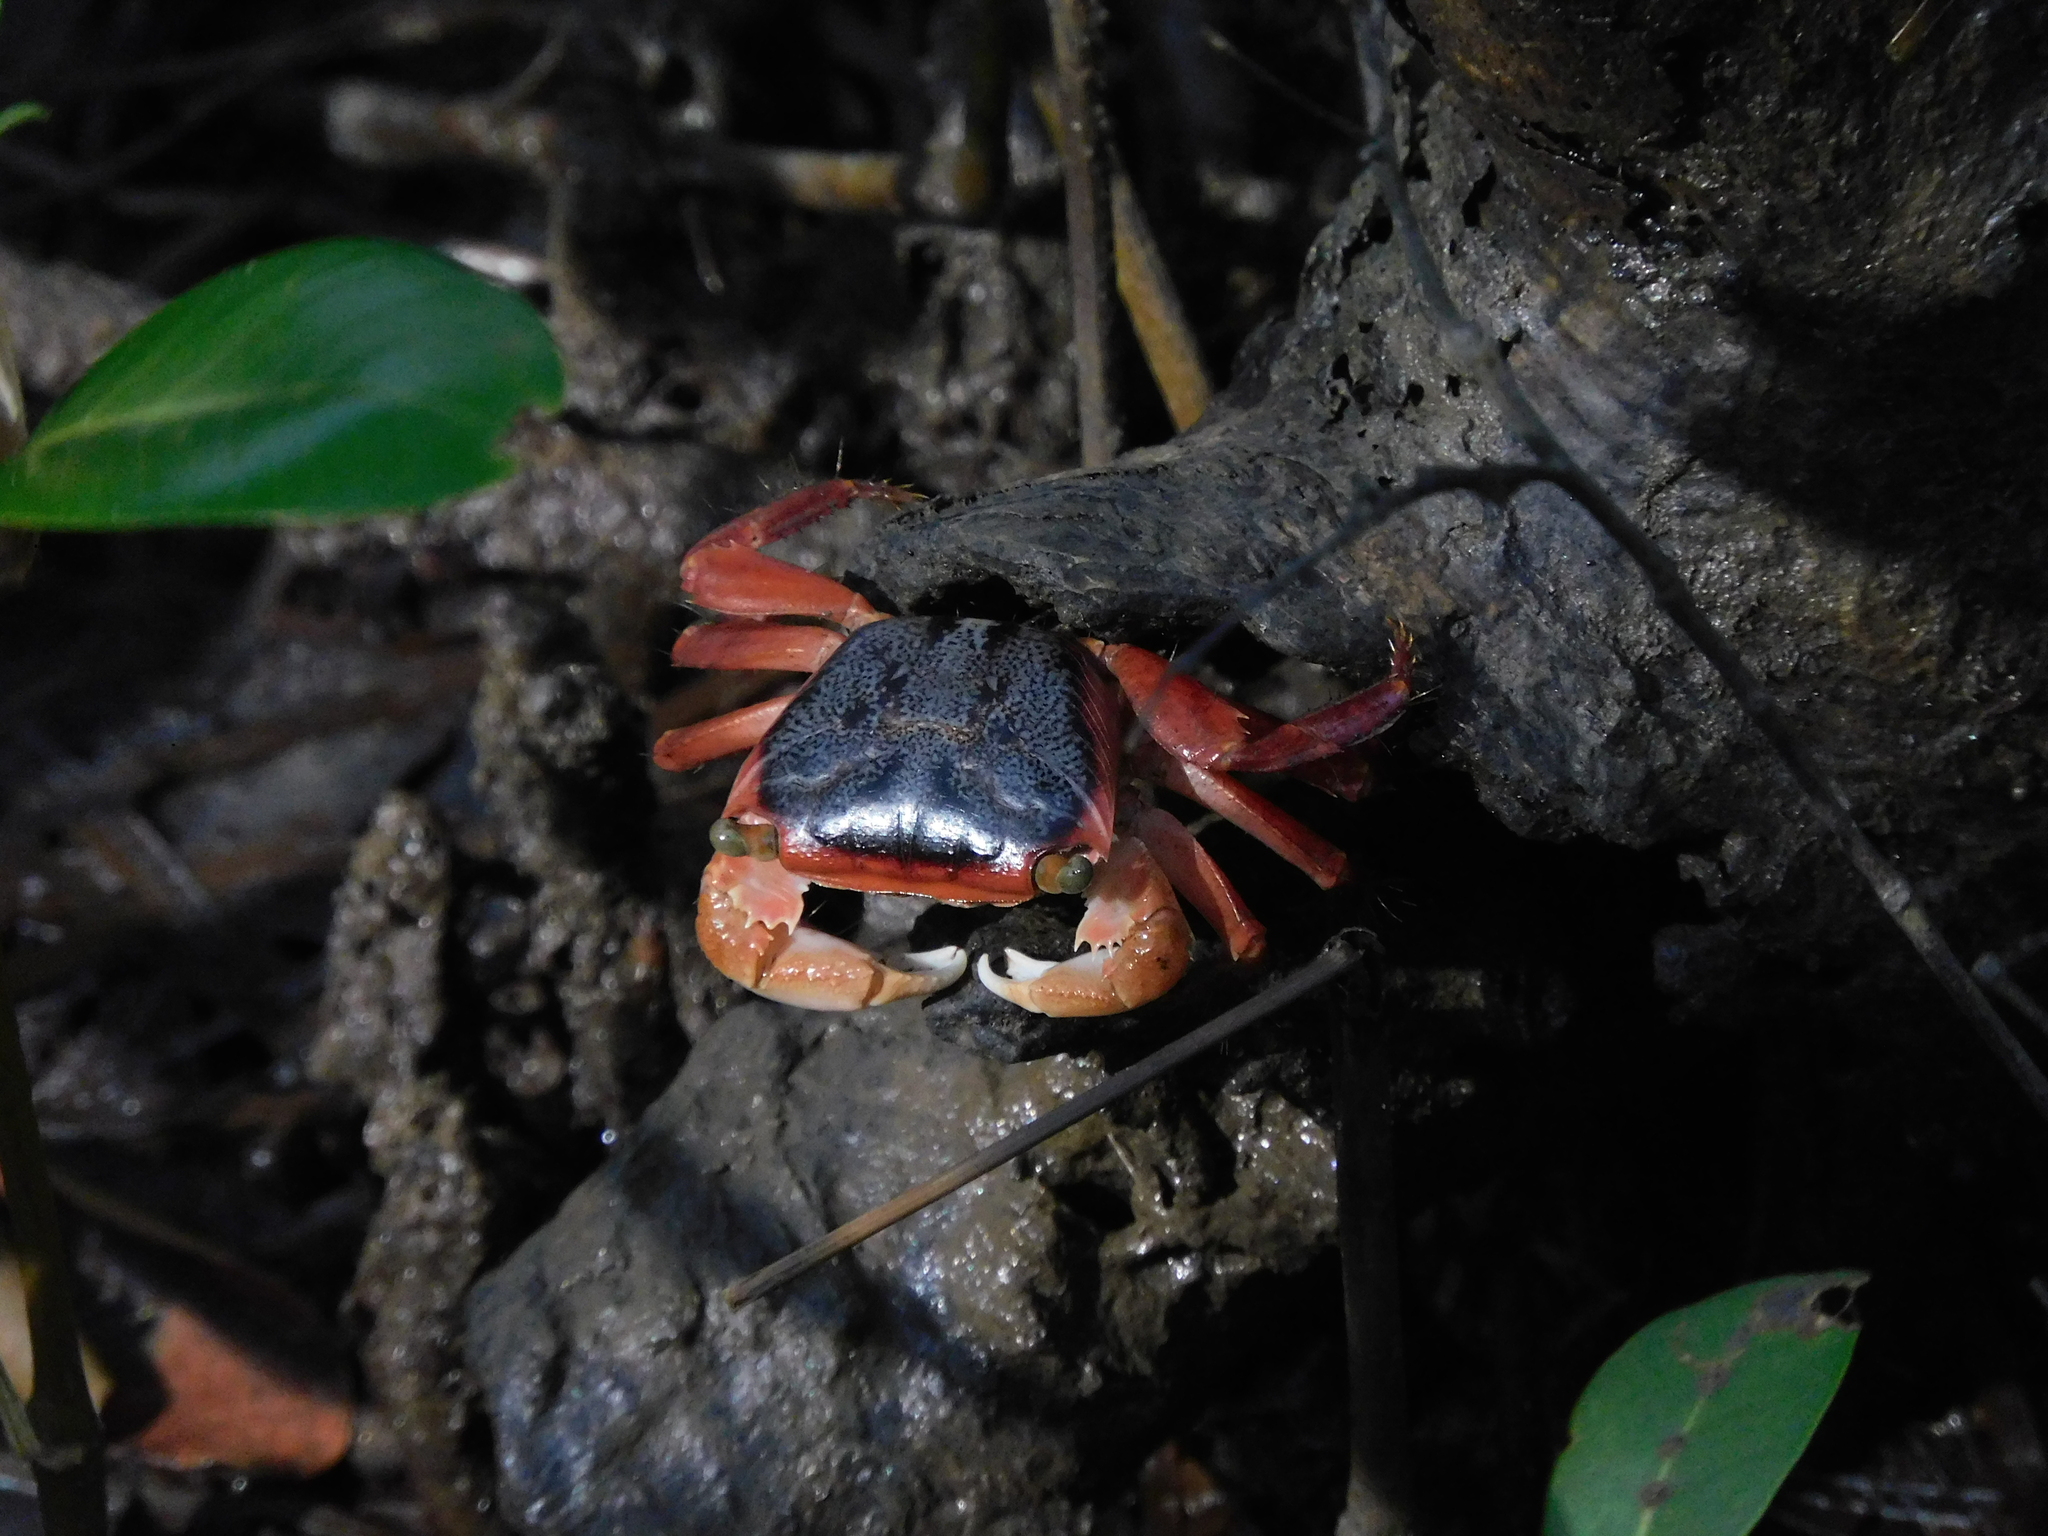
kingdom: Animalia
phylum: Arthropoda
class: Malacostraca
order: Decapoda
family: Grapsidae
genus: Metopograpsus
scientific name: Metopograpsus latifrons
